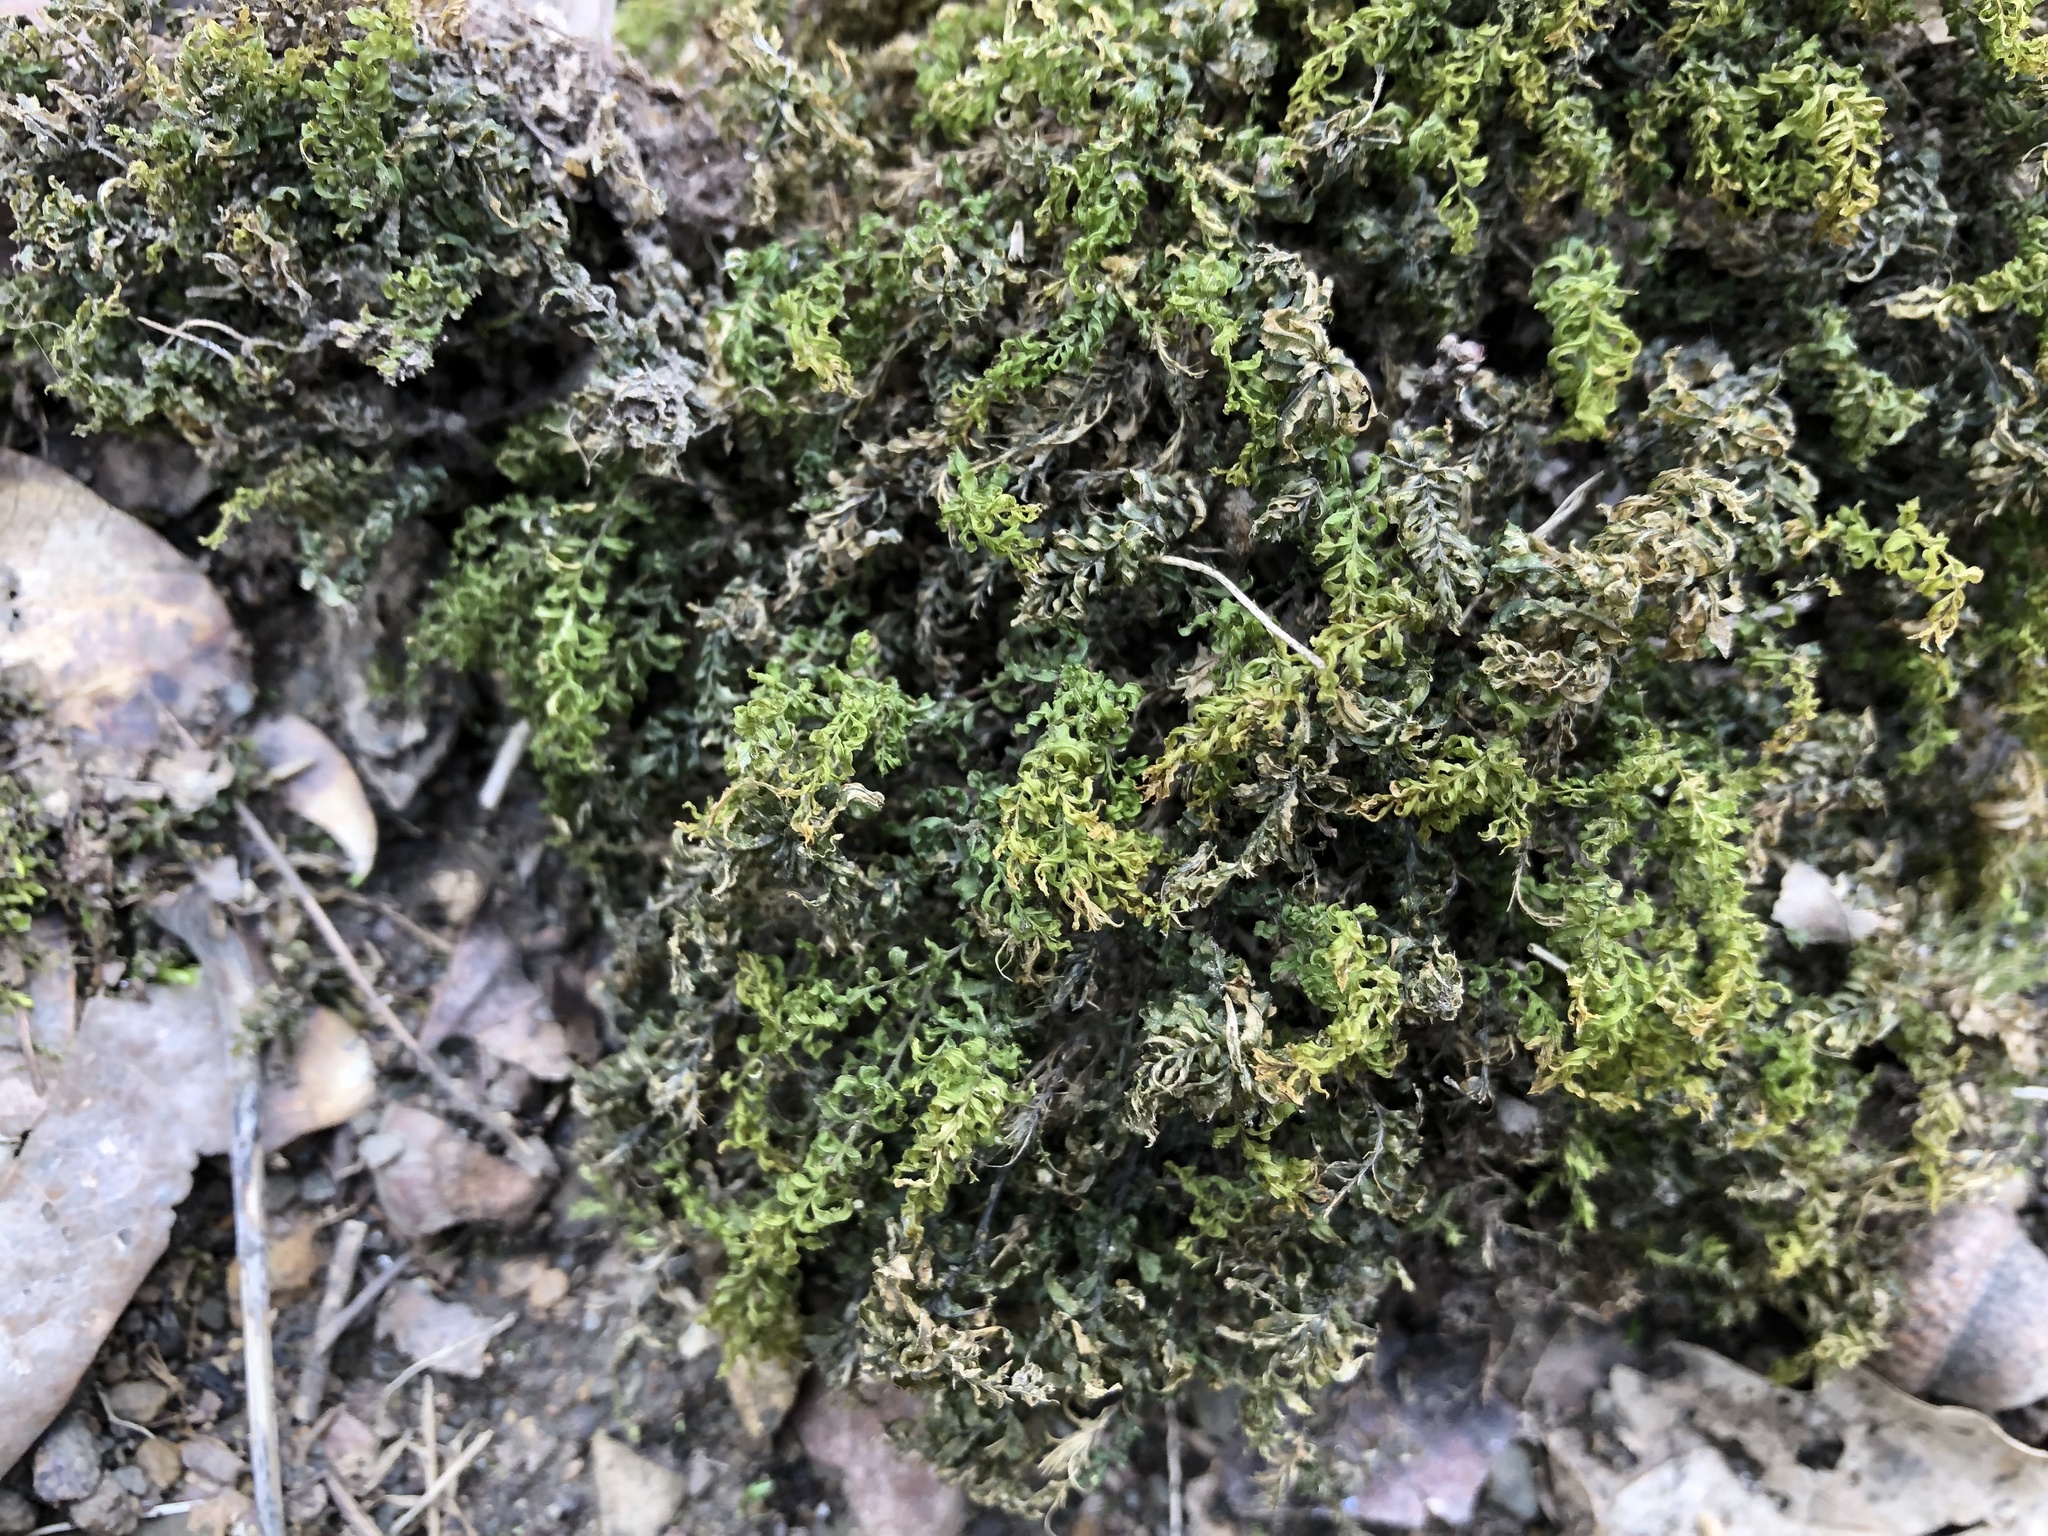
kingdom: Plantae
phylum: Bryophyta
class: Bryopsida
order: Bryales
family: Mniaceae
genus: Plagiomnium
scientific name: Plagiomnium undulatum
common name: Hart's-tongue thyme-moss
